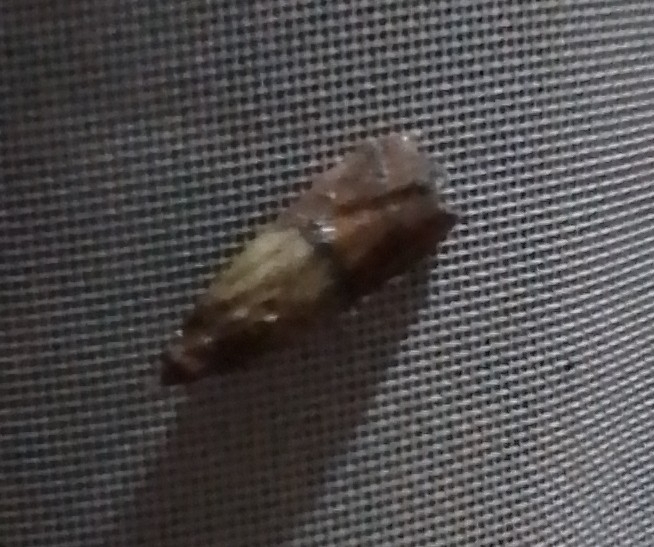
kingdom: Animalia
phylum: Arthropoda
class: Insecta
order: Lepidoptera
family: Pyralidae
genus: Plodia
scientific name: Plodia interpunctella
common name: Indian meal moth
